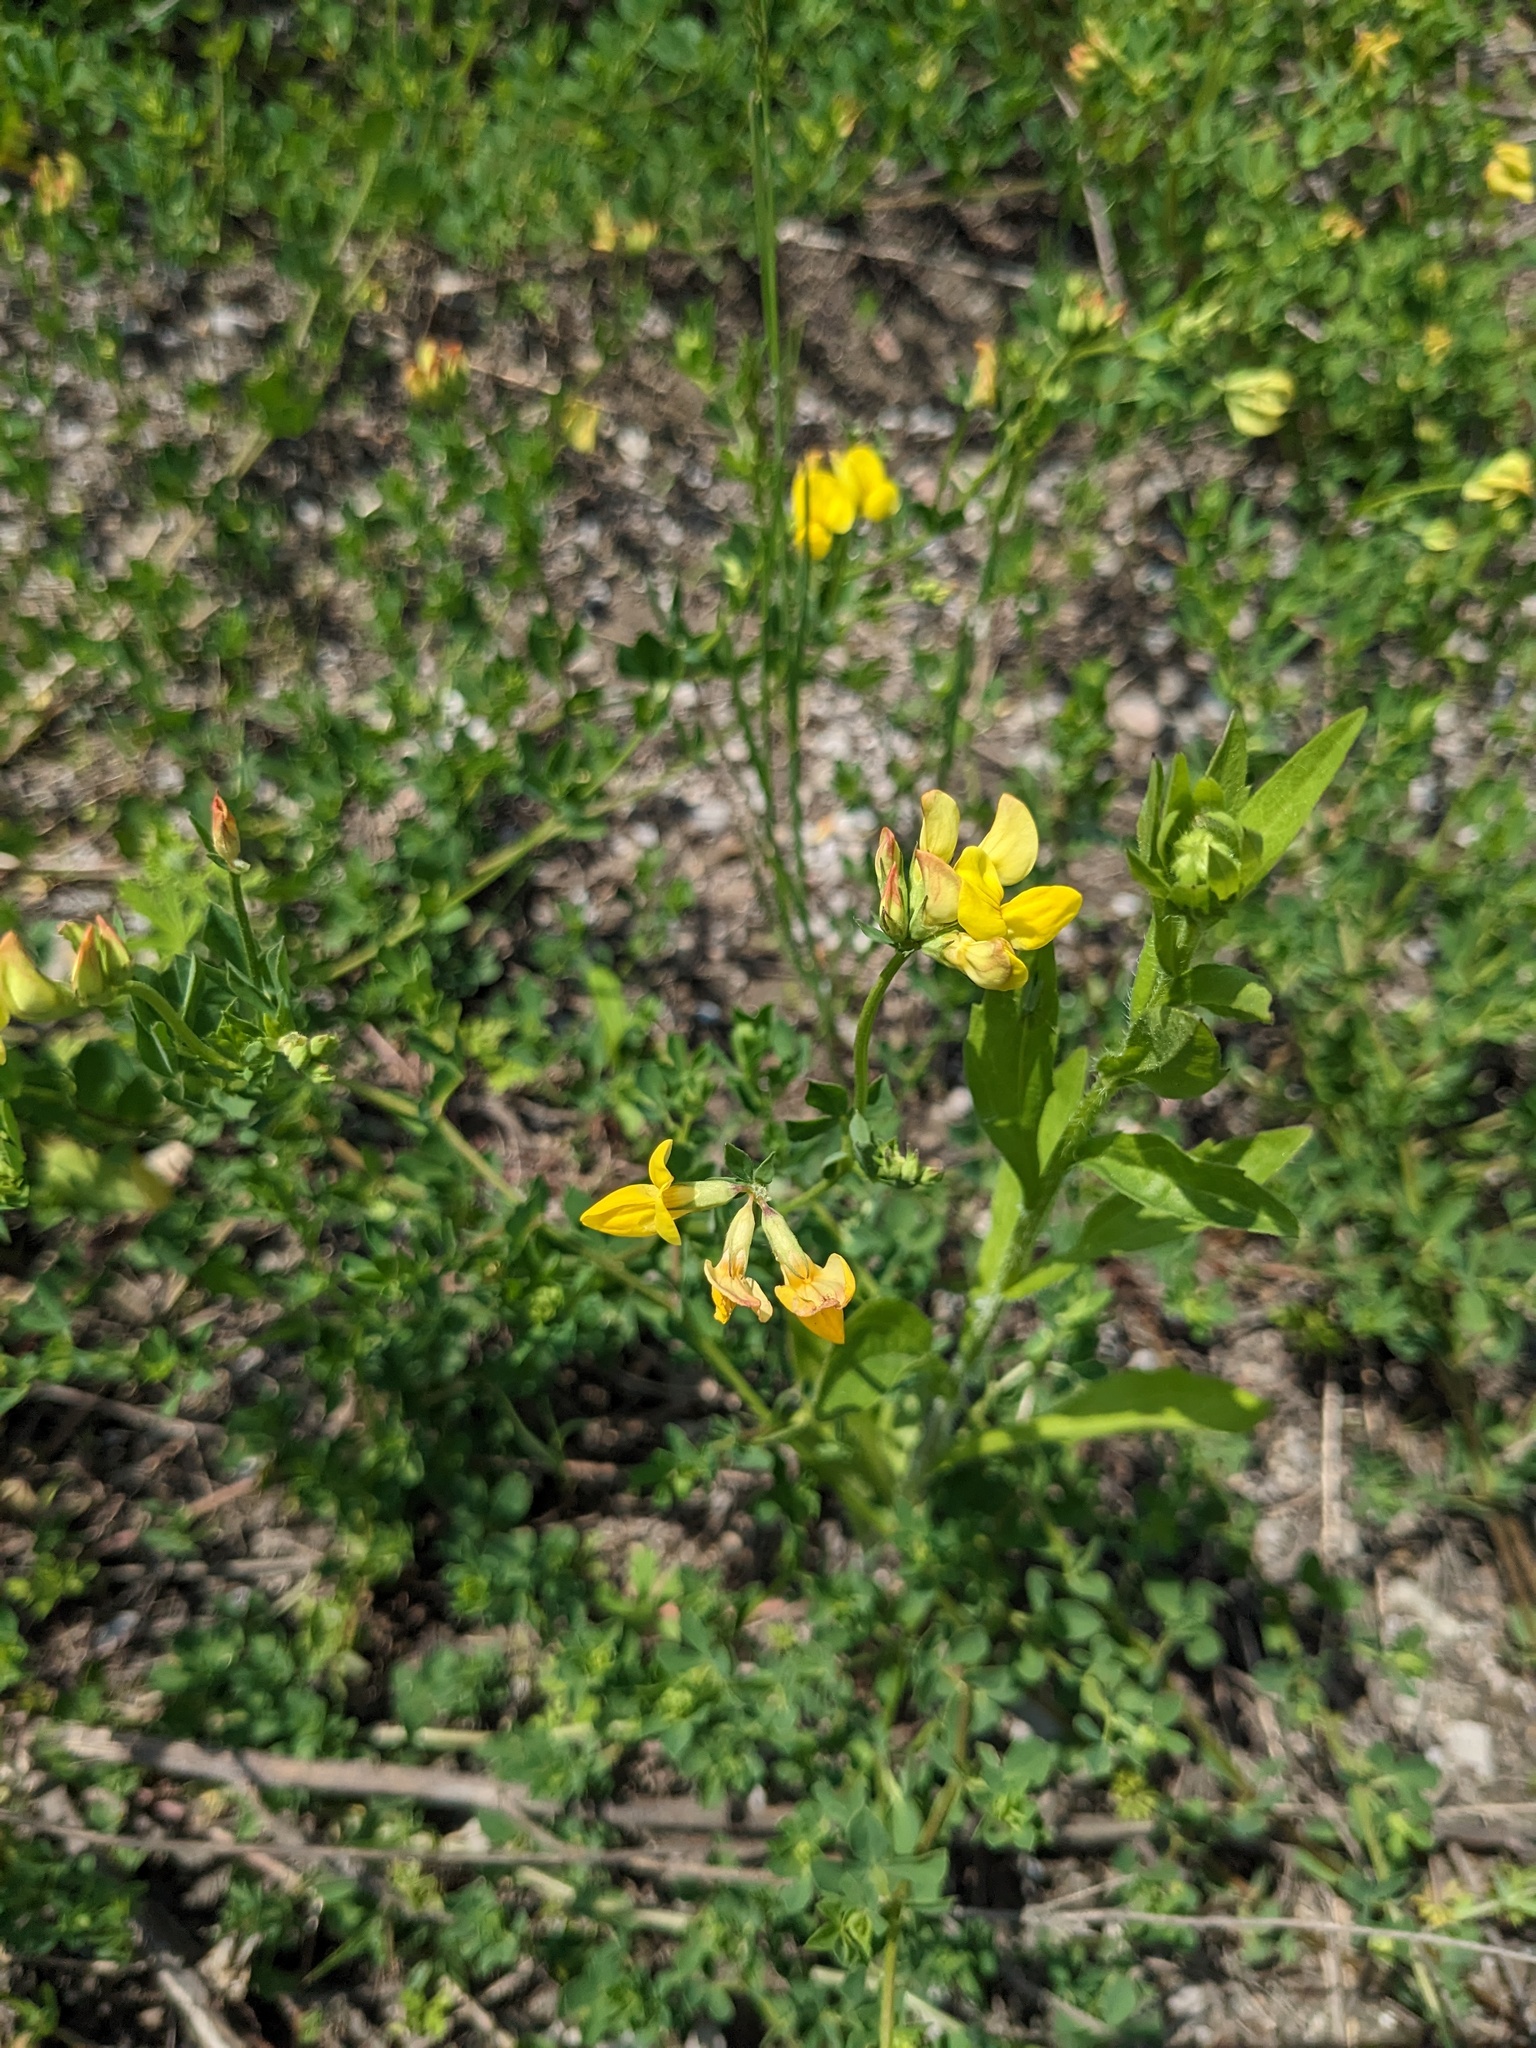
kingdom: Plantae
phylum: Tracheophyta
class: Magnoliopsida
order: Fabales
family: Fabaceae
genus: Lotus
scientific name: Lotus corniculatus
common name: Common bird's-foot-trefoil
